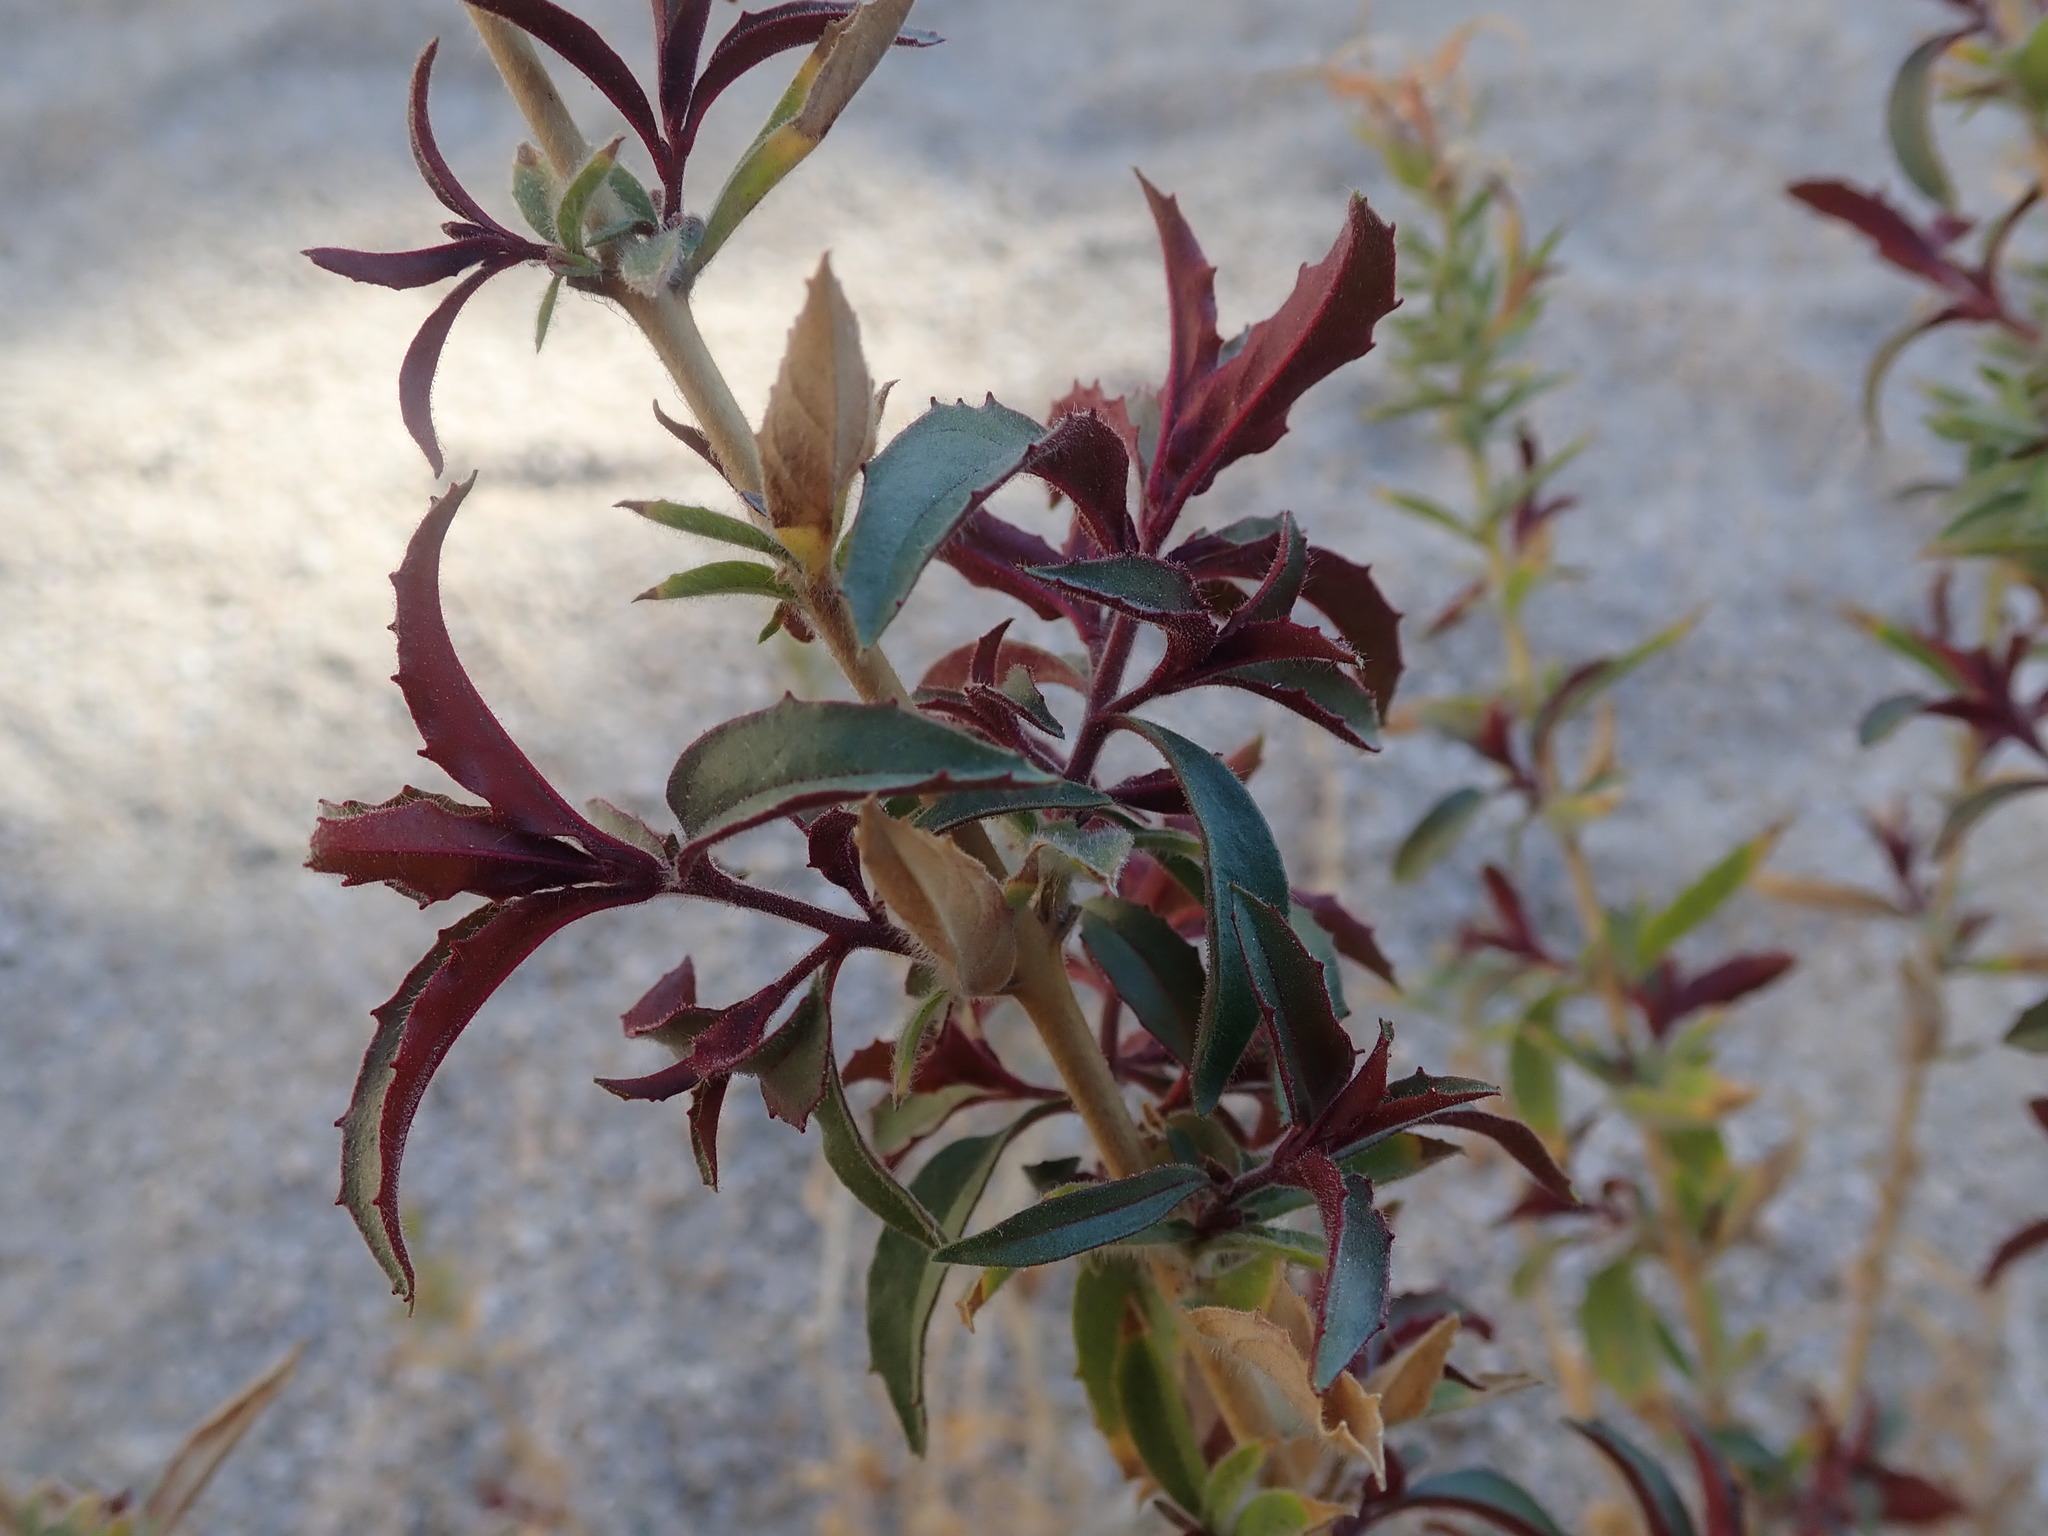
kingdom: Plantae
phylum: Tracheophyta
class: Magnoliopsida
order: Myrtales
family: Onagraceae
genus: Epilobium
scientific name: Epilobium canum
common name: California-fuchsia
